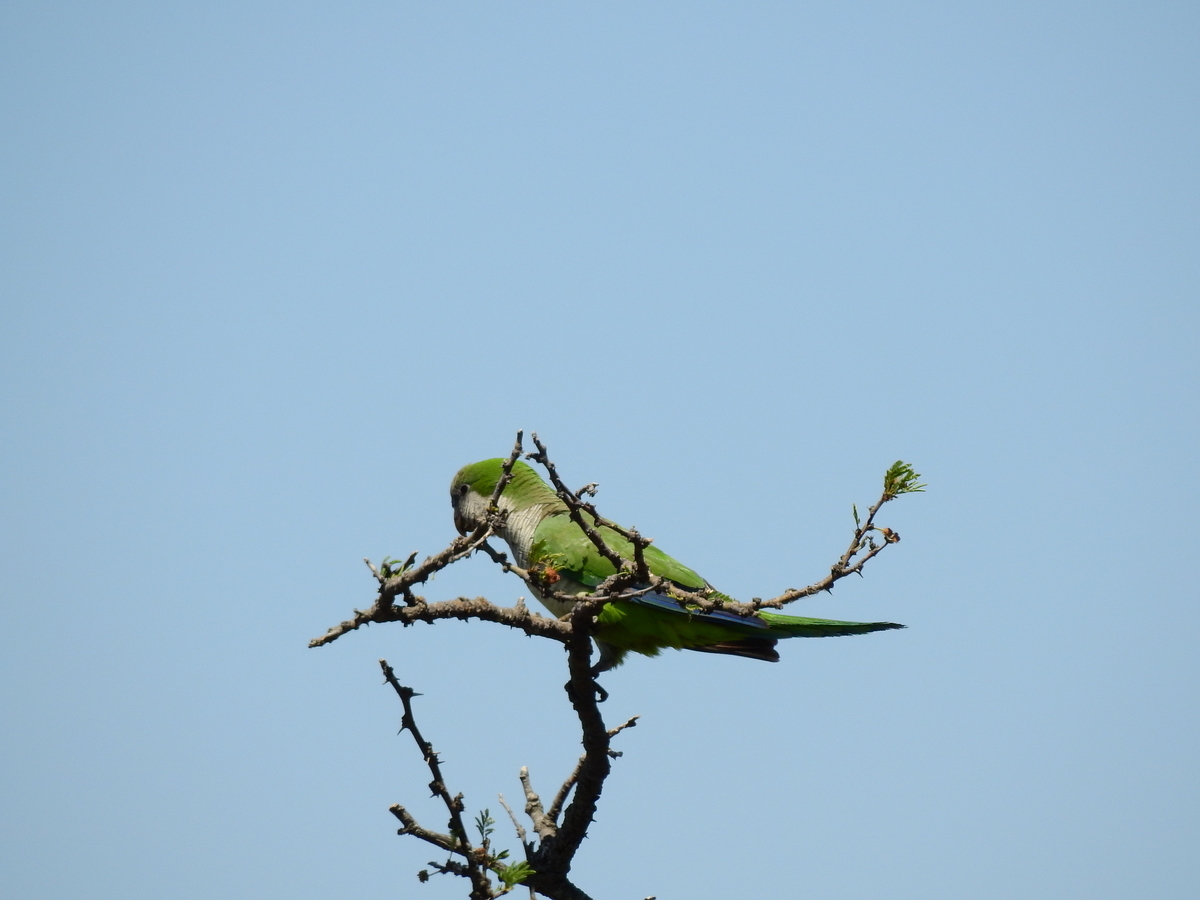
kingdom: Animalia
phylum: Chordata
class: Aves
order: Psittaciformes
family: Psittacidae
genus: Myiopsitta
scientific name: Myiopsitta monachus
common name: Monk parakeet
